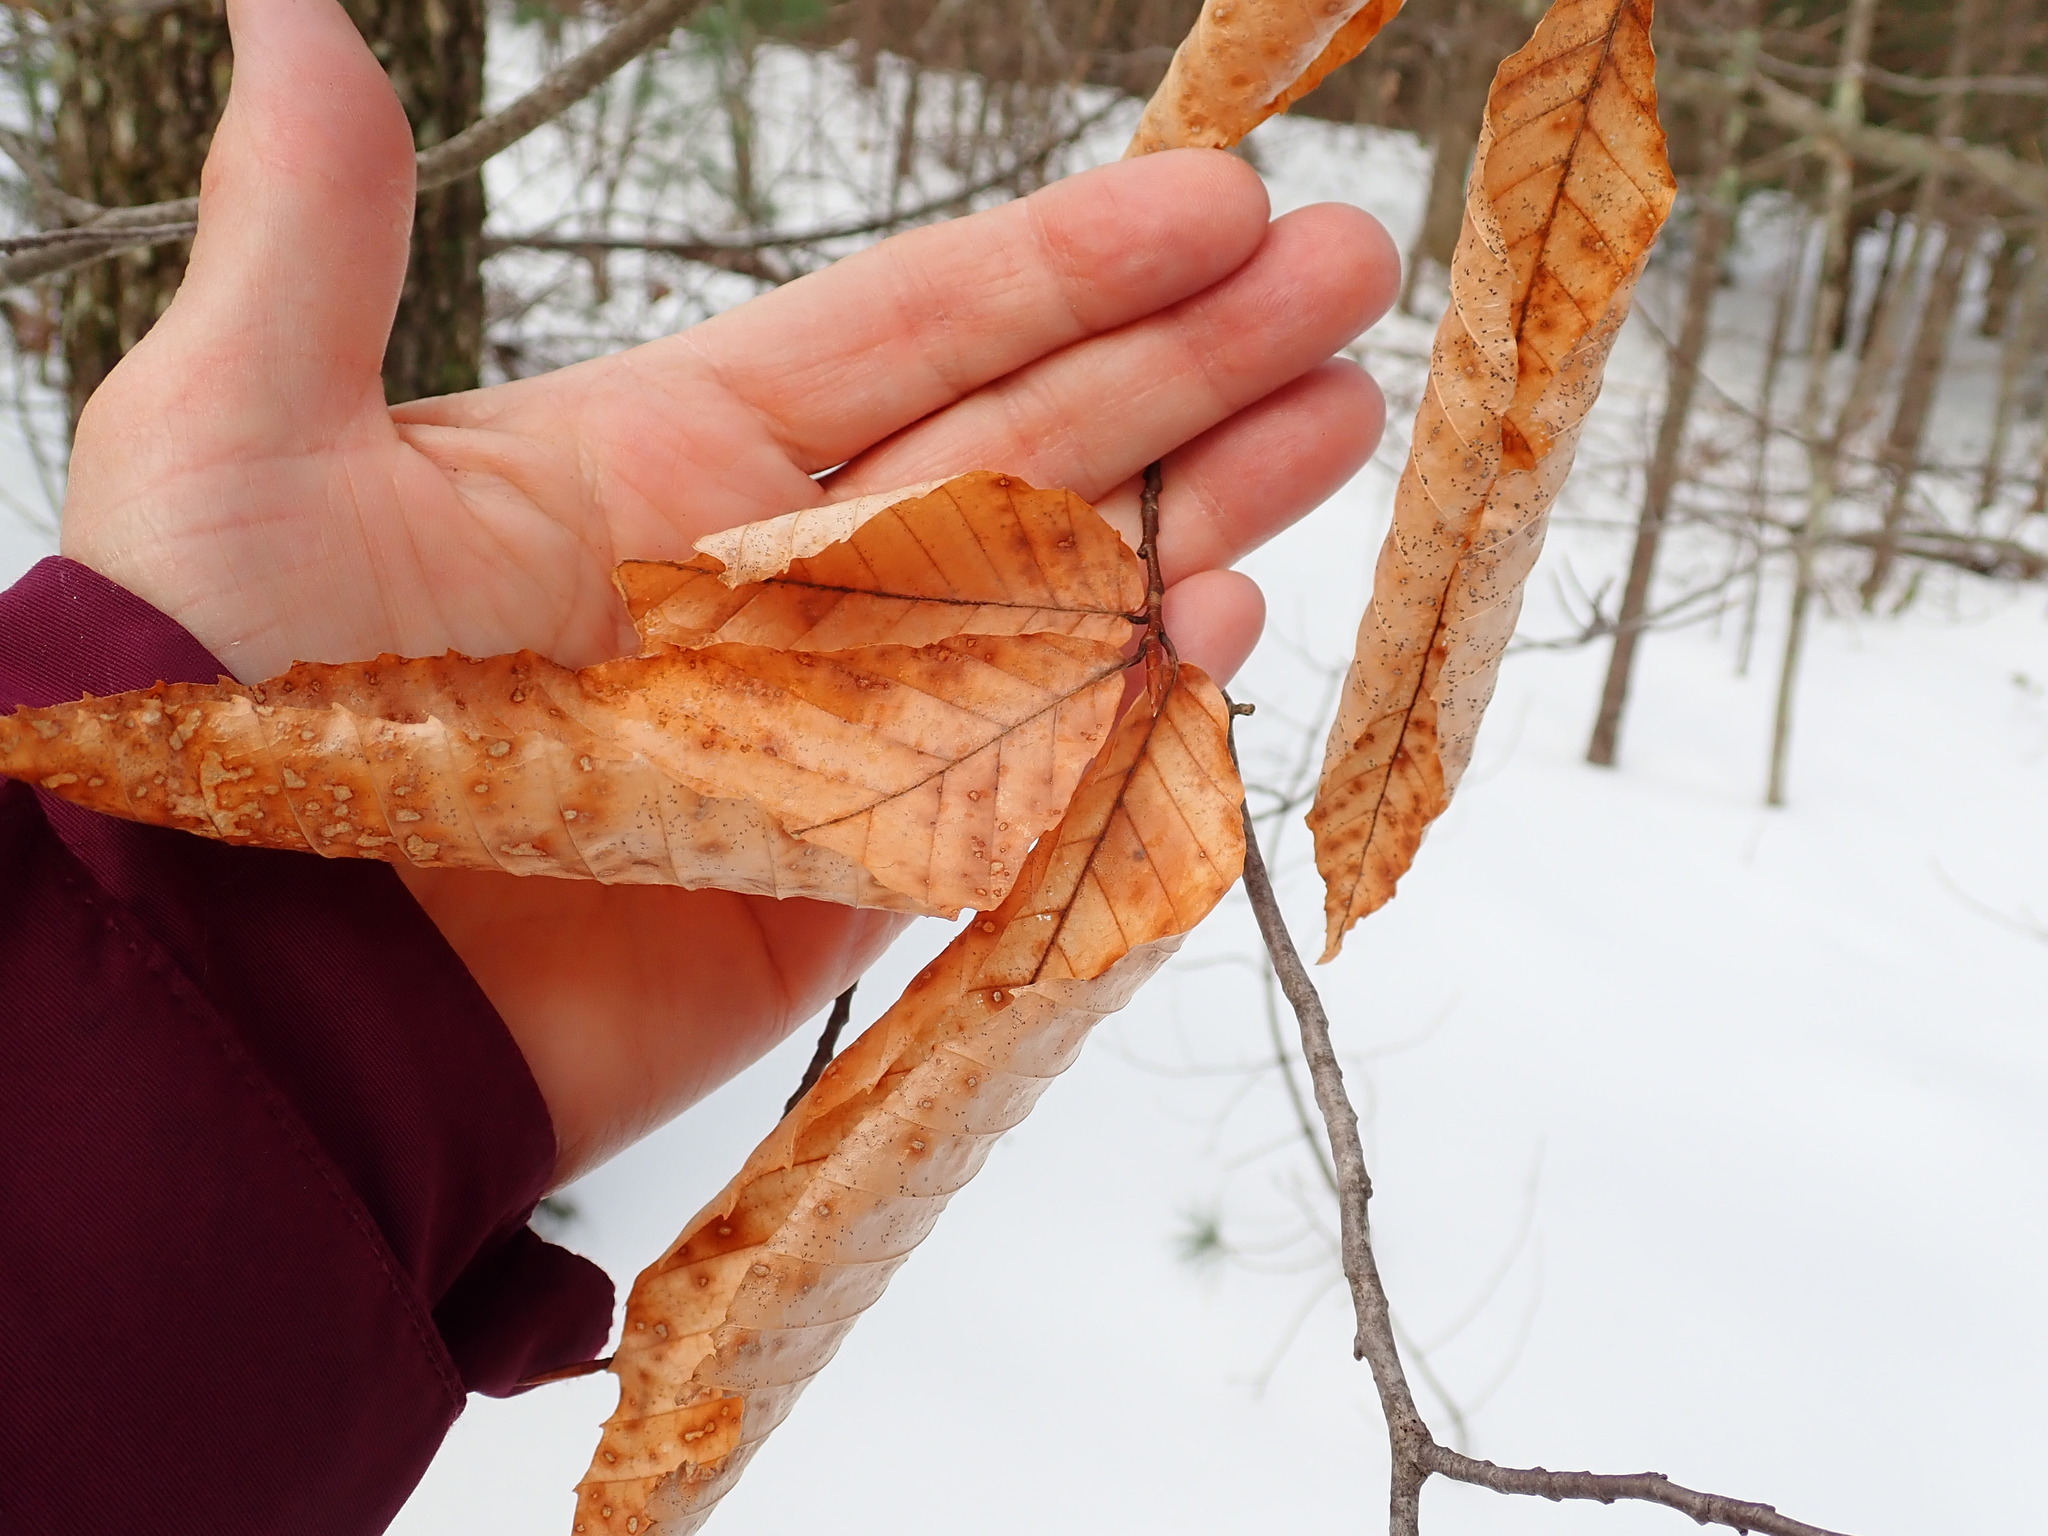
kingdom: Plantae
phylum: Tracheophyta
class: Magnoliopsida
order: Fagales
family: Fagaceae
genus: Fagus
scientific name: Fagus grandifolia
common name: American beech
